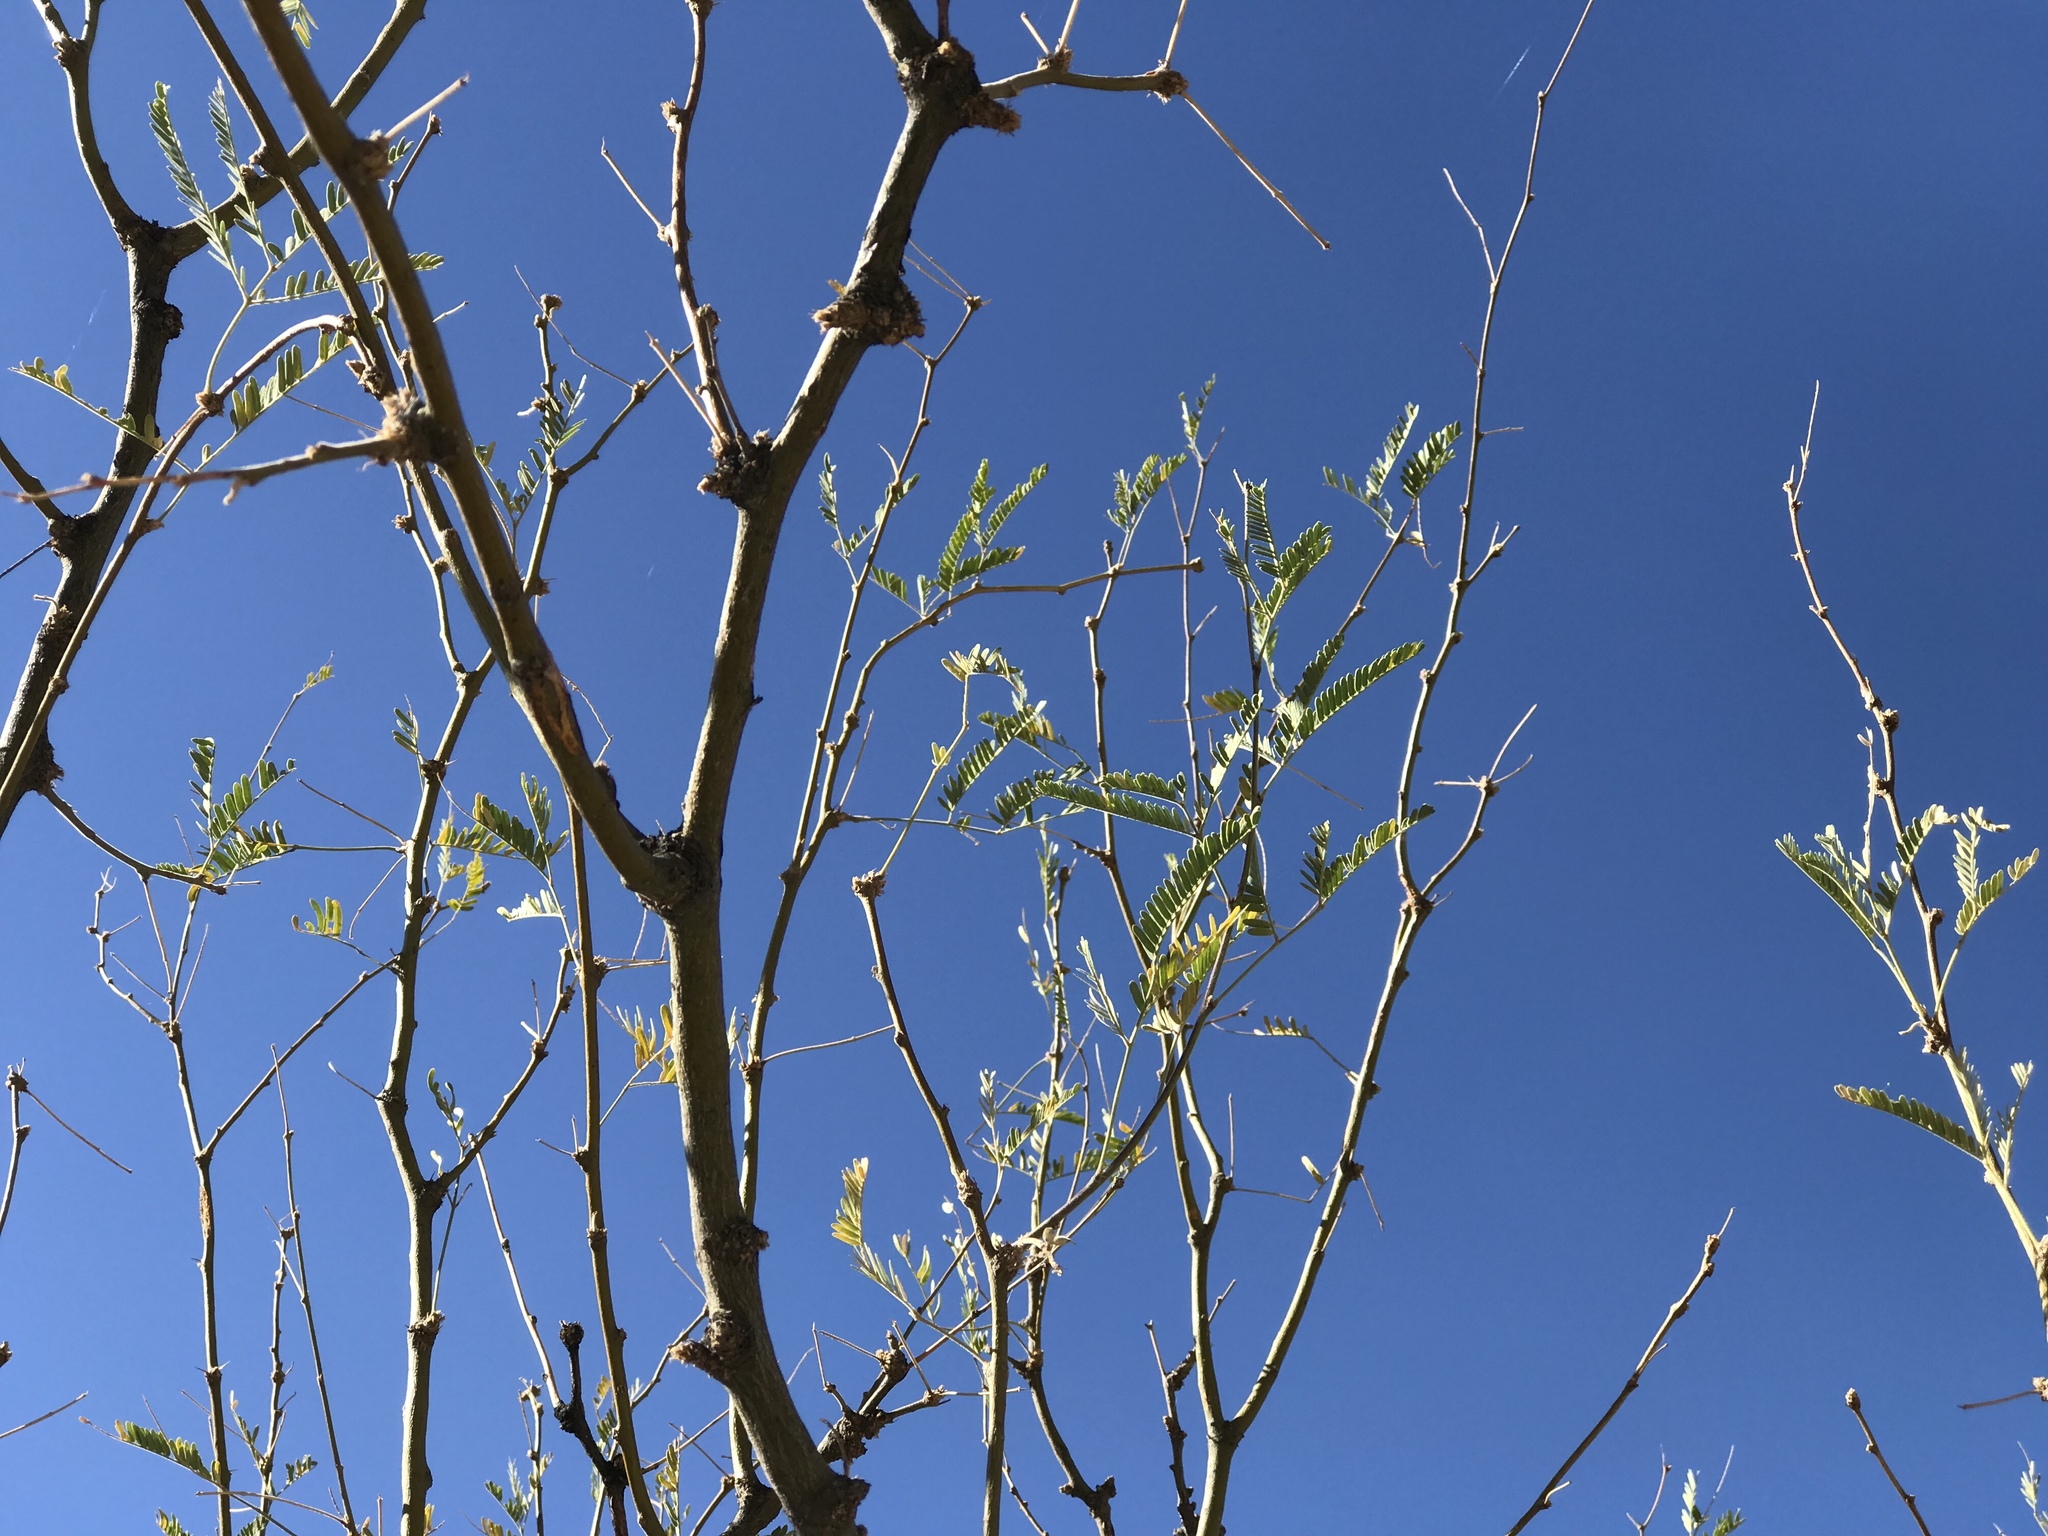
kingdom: Plantae
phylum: Tracheophyta
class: Magnoliopsida
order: Fabales
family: Fabaceae
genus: Prosopis
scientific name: Prosopis glandulosa
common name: Honey mesquite
